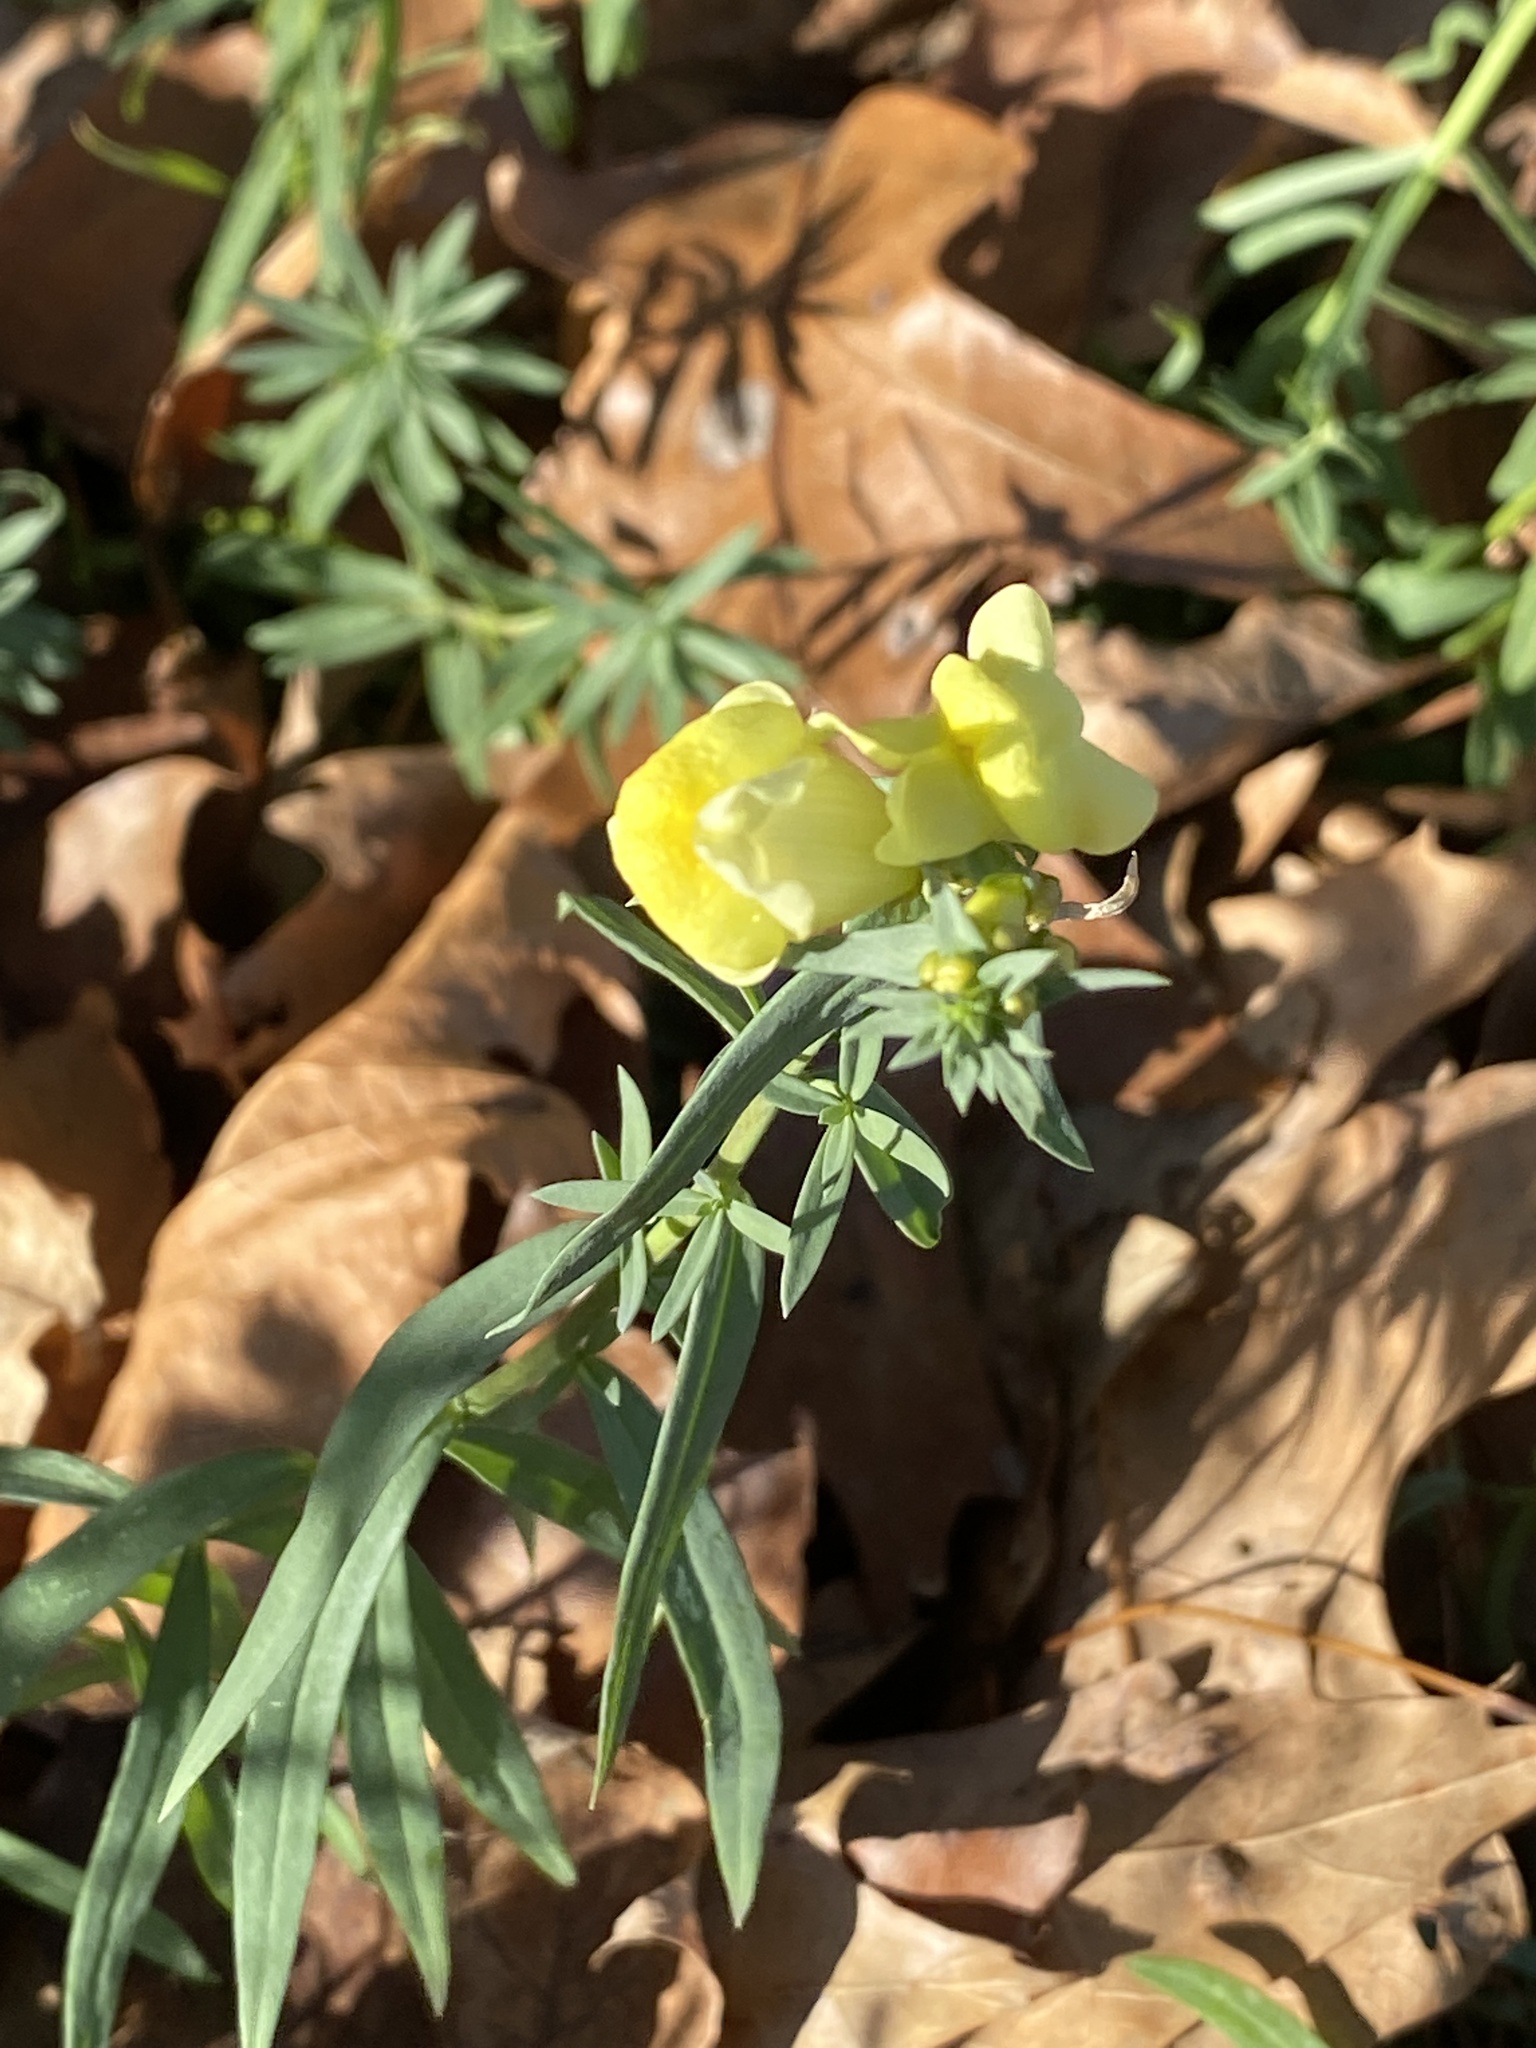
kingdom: Plantae
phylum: Tracheophyta
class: Magnoliopsida
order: Lamiales
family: Plantaginaceae
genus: Linaria
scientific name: Linaria vulgaris
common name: Butter and eggs
